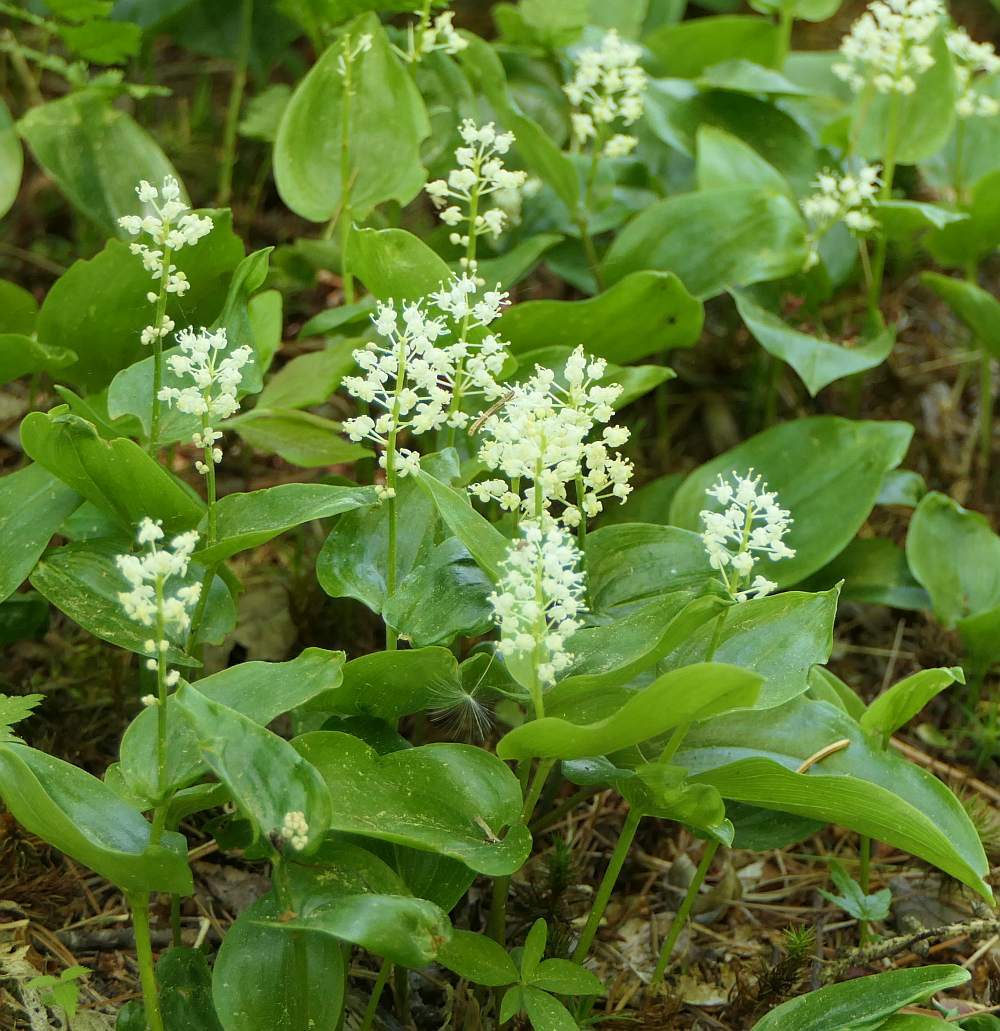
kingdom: Plantae
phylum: Tracheophyta
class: Liliopsida
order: Asparagales
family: Asparagaceae
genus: Maianthemum
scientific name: Maianthemum canadense
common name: False lily-of-the-valley
